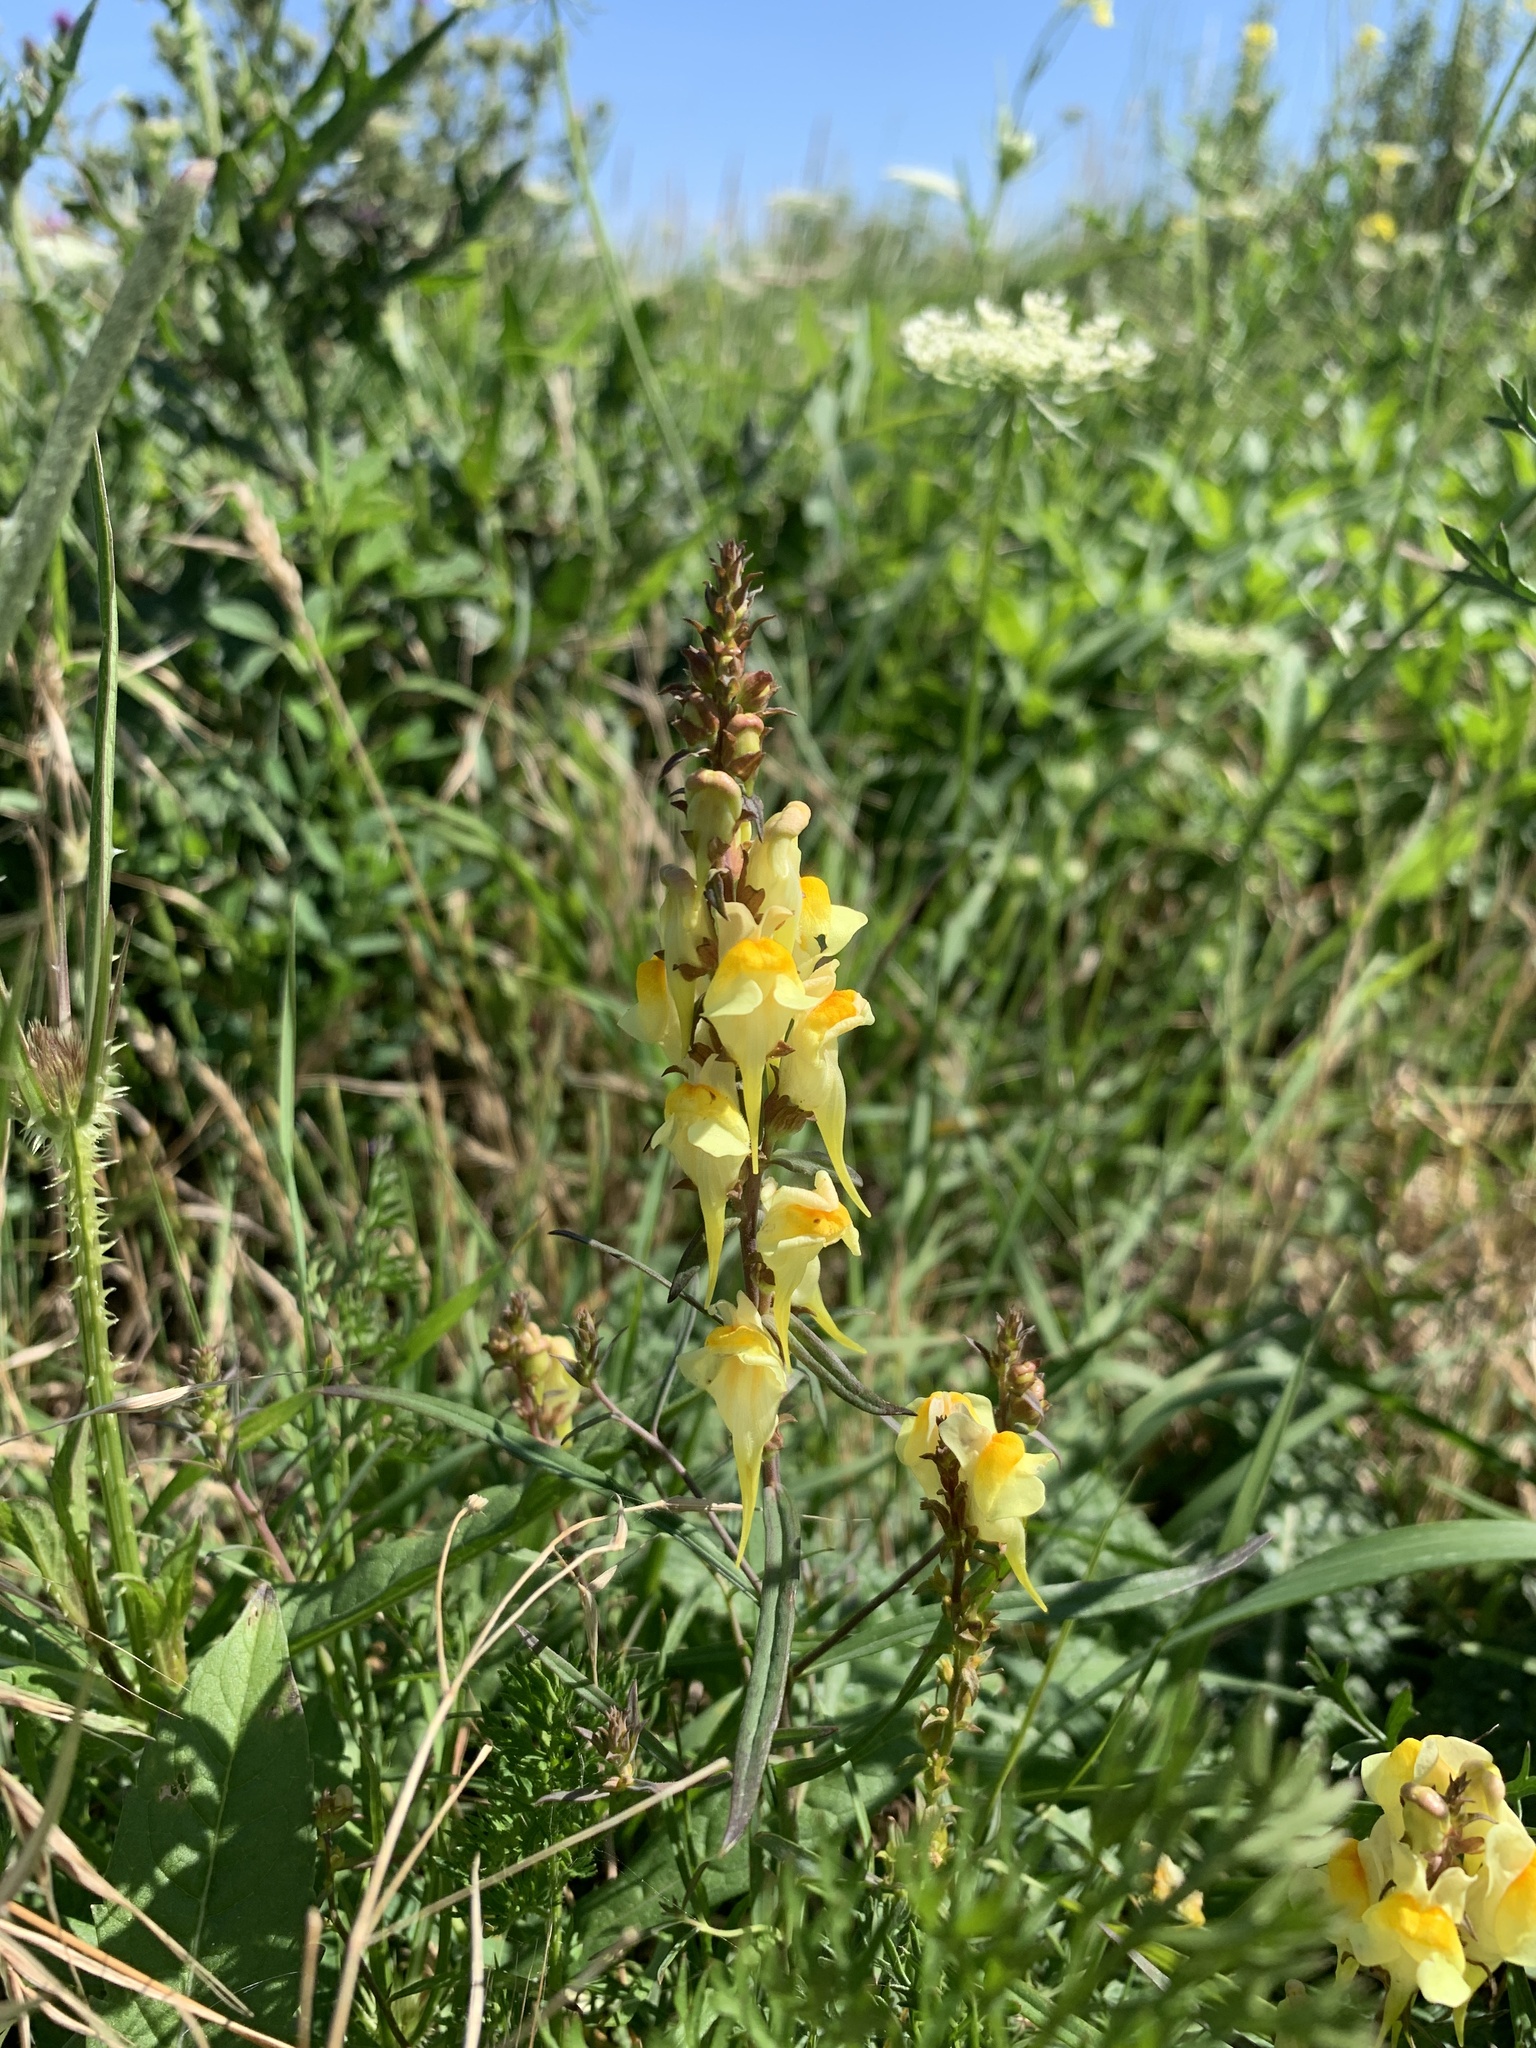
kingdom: Plantae
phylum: Tracheophyta
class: Magnoliopsida
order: Lamiales
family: Plantaginaceae
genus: Linaria
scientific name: Linaria vulgaris
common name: Butter and eggs
